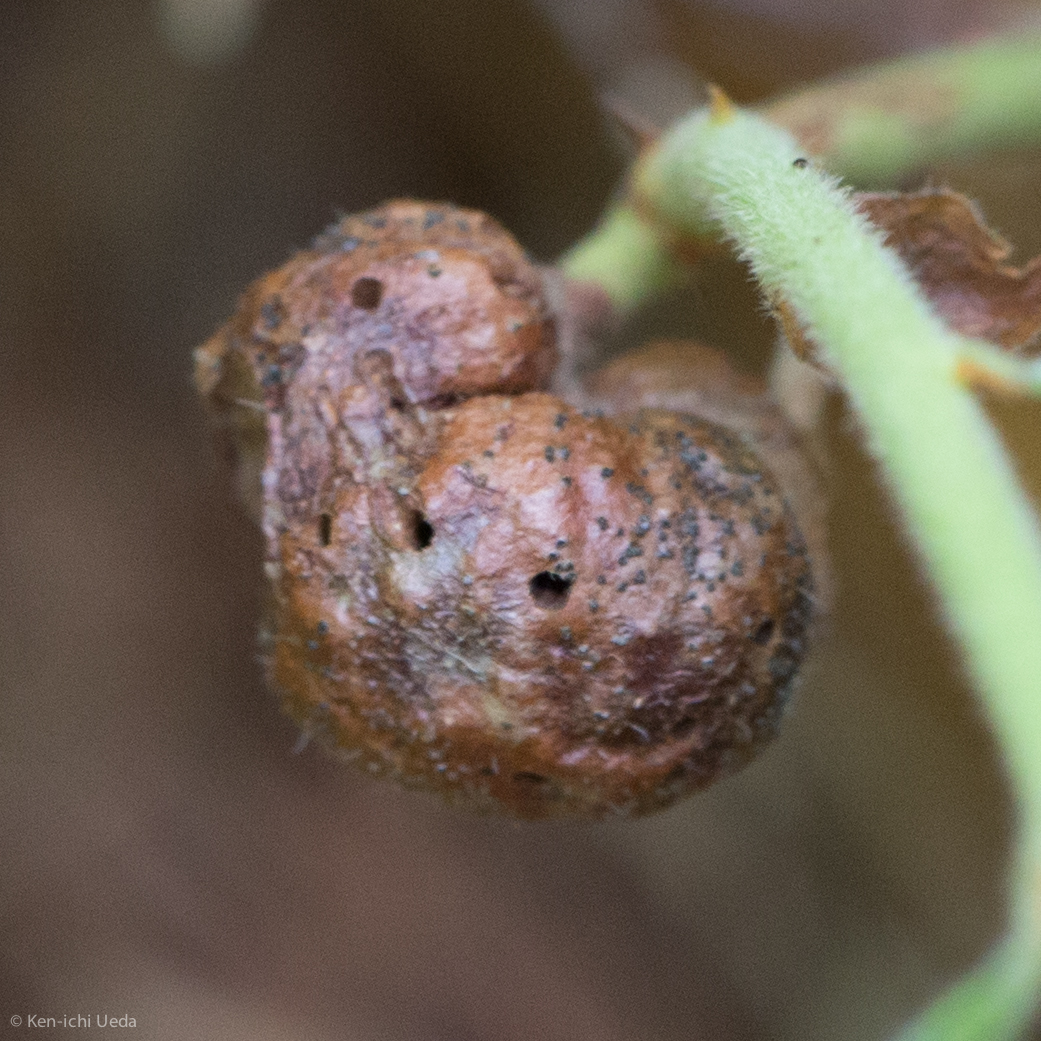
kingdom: Animalia
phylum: Arthropoda
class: Insecta
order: Hymenoptera
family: Pteromalidae
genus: Hemadas
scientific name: Hemadas nubilipennis
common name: Blueberry stem gall wasp
